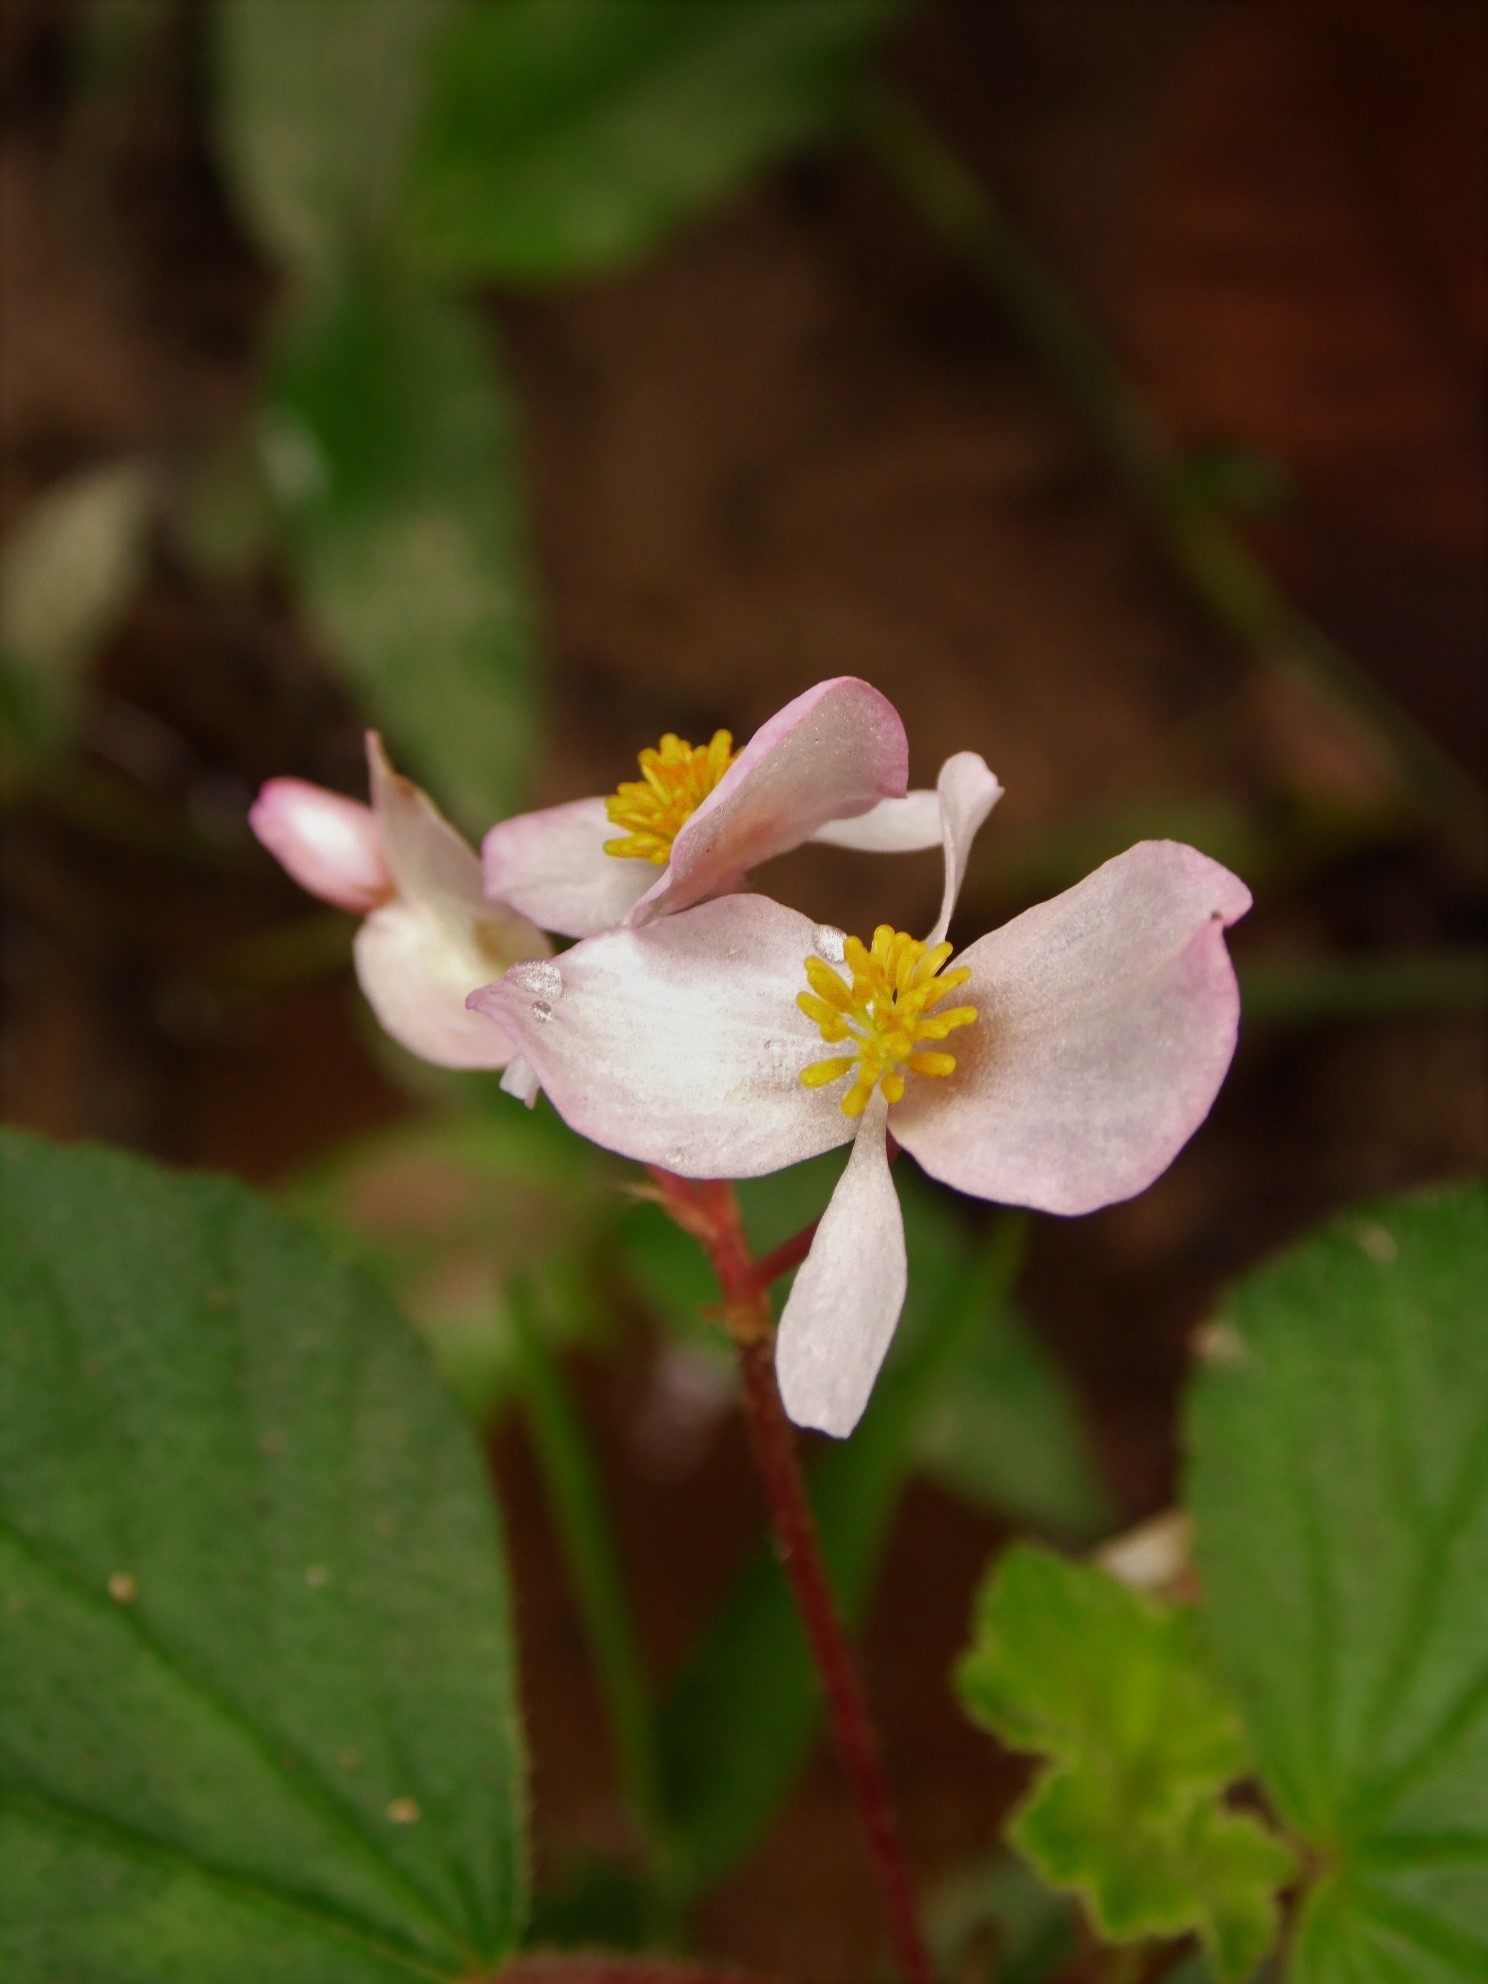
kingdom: Plantae
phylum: Tracheophyta
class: Magnoliopsida
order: Cucurbitales
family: Begoniaceae
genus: Begonia
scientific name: Begonia fischeri
